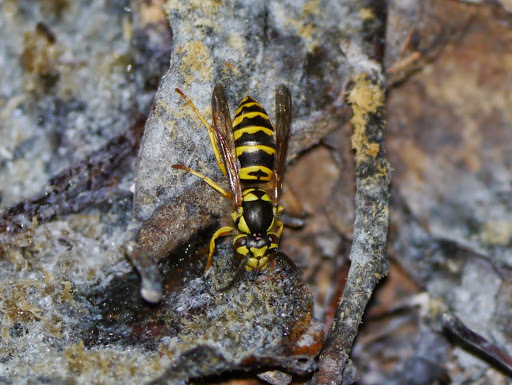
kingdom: Animalia
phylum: Arthropoda
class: Insecta
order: Hymenoptera
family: Vespidae
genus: Vespula
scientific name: Vespula maculifrons
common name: Eastern yellowjacket
